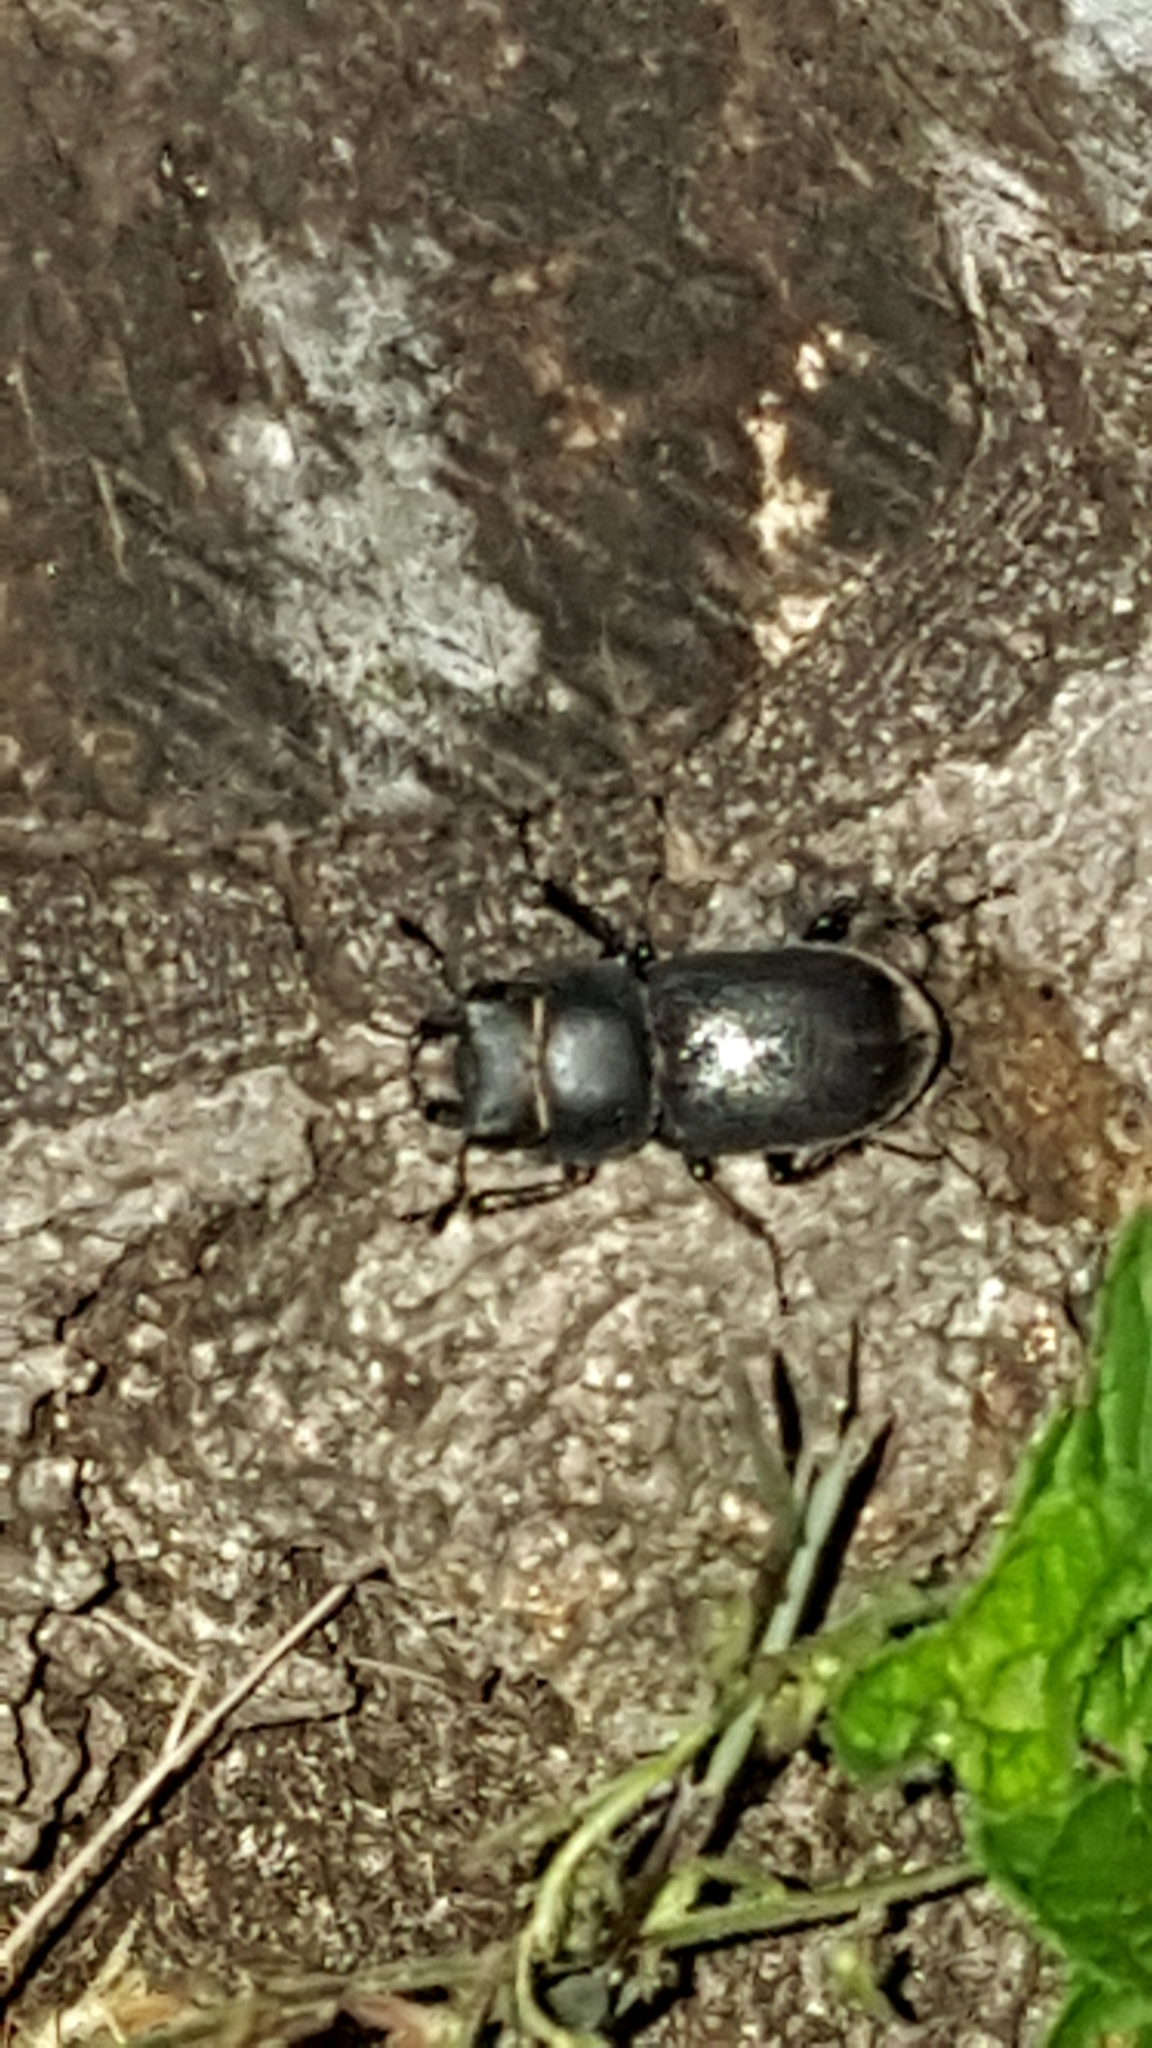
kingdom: Animalia
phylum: Arthropoda
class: Insecta
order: Coleoptera
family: Lucanidae
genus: Dorcus
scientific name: Dorcus parallelipipedus
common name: Lesser stag beetle
